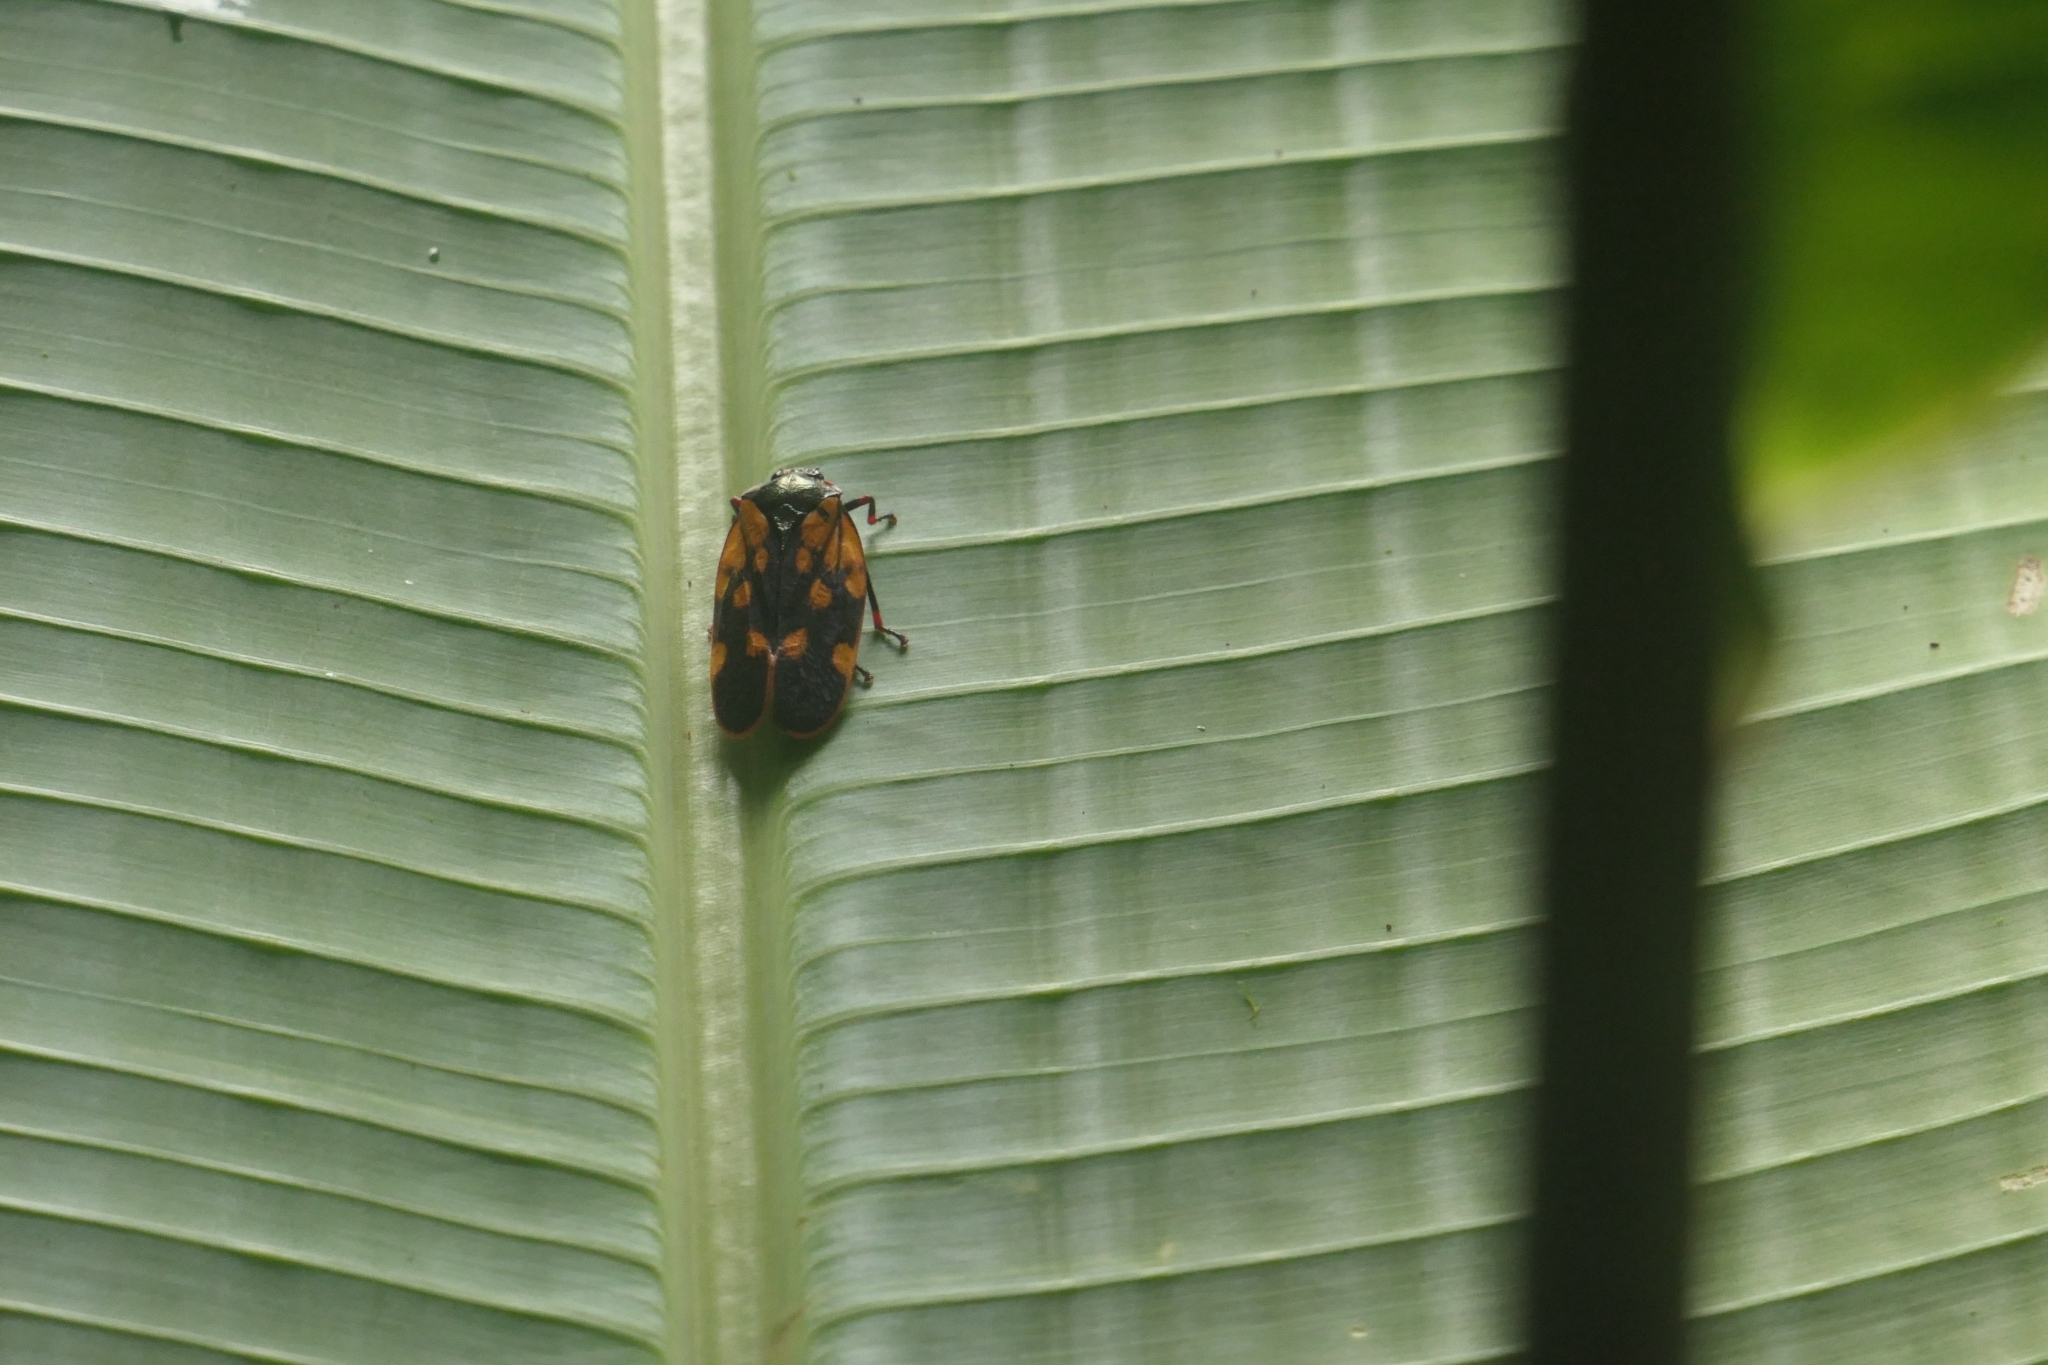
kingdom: Animalia
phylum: Arthropoda
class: Insecta
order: Hemiptera
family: Cercopidae
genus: Mahanarva
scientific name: Mahanarva costaricensis
